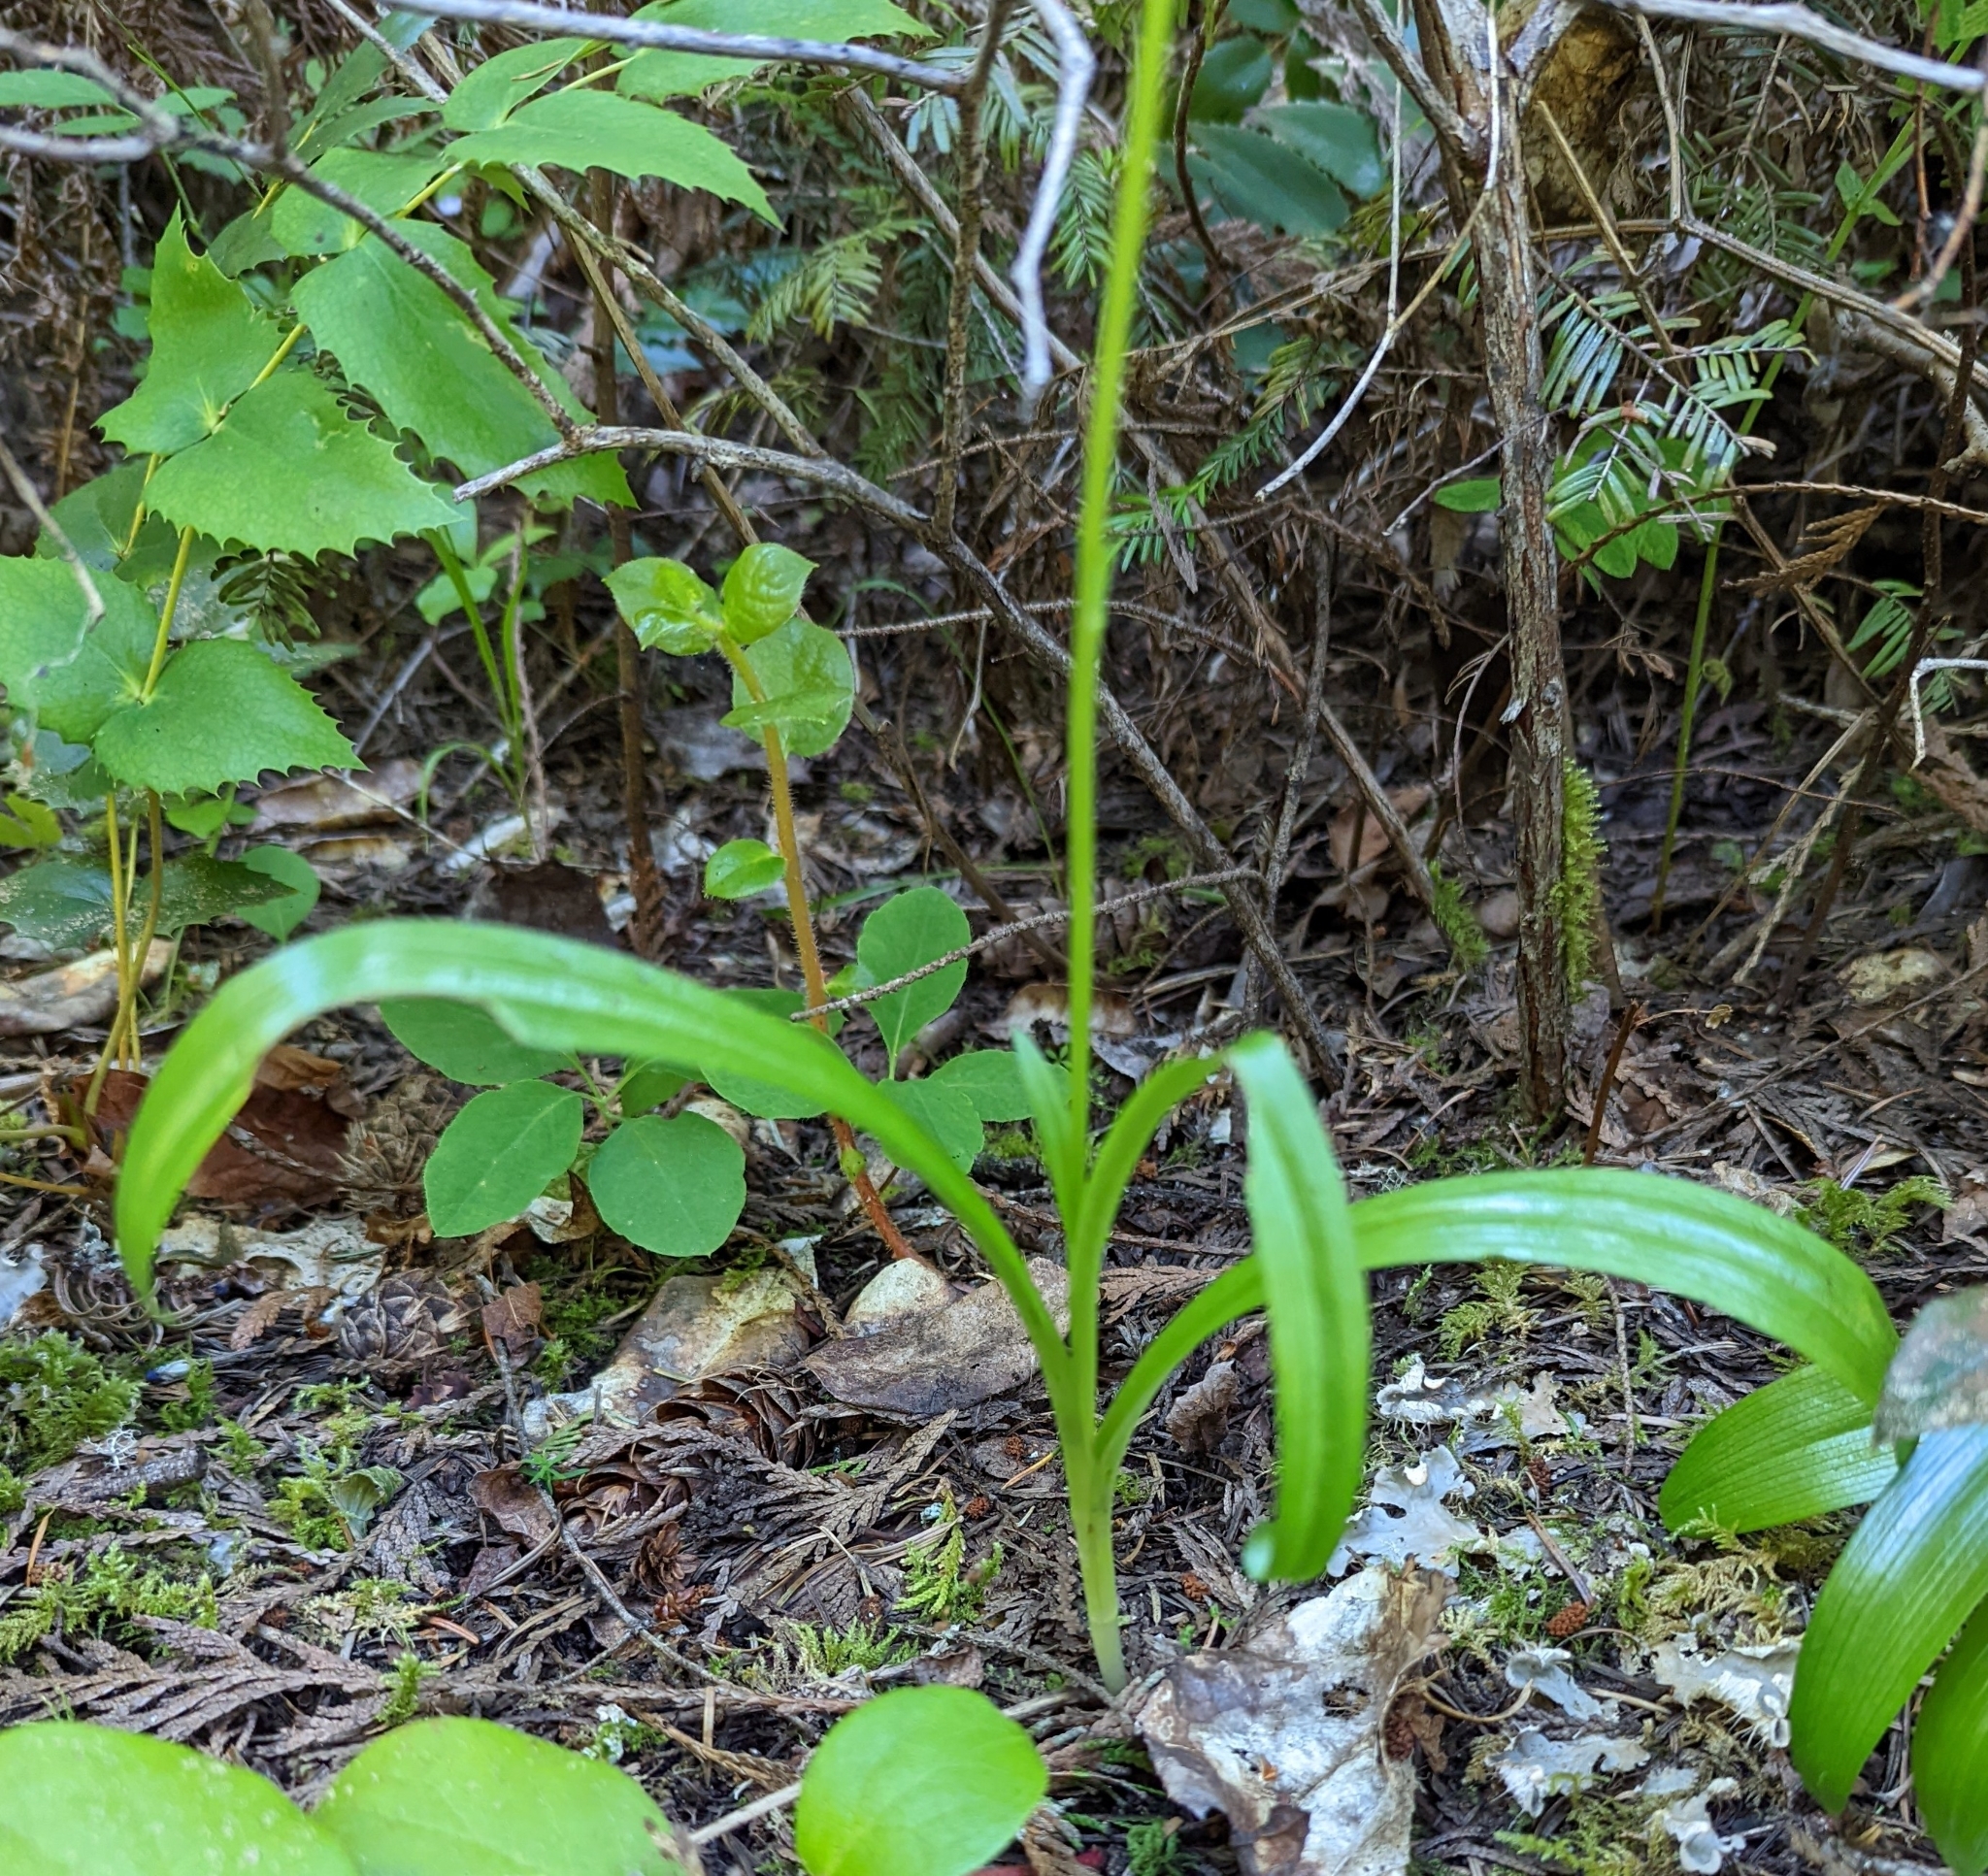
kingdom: Plantae
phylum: Tracheophyta
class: Liliopsida
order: Asparagales
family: Orchidaceae
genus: Platanthera
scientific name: Platanthera unalascensis
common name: Alaska bog orchid
